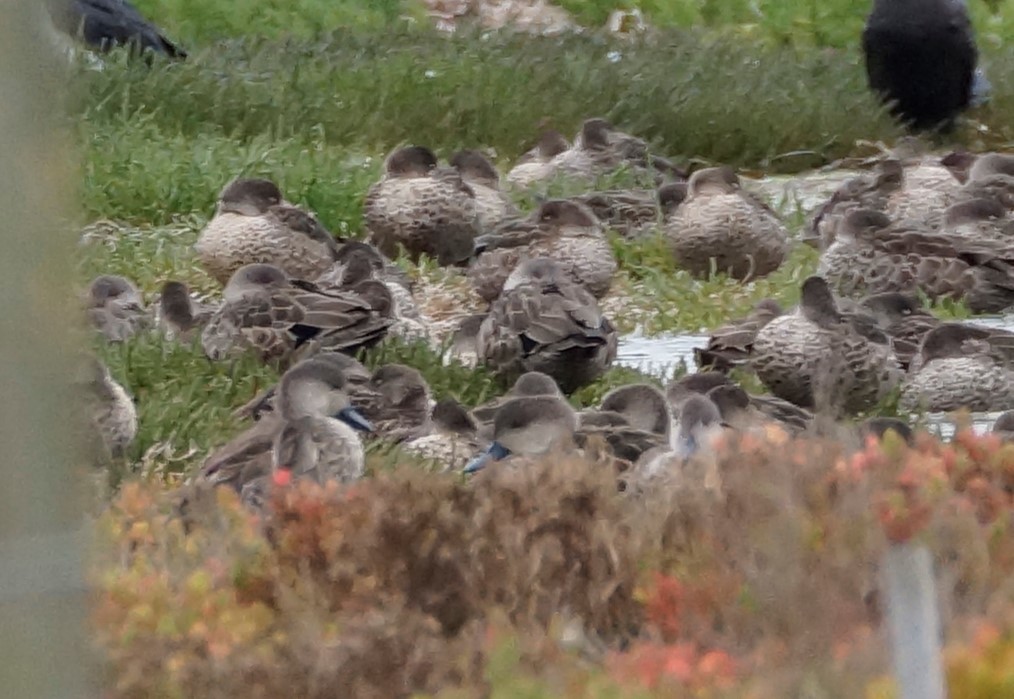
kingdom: Animalia
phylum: Chordata
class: Aves
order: Anseriformes
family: Anatidae
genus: Anas
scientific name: Anas gracilis
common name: Grey teal
